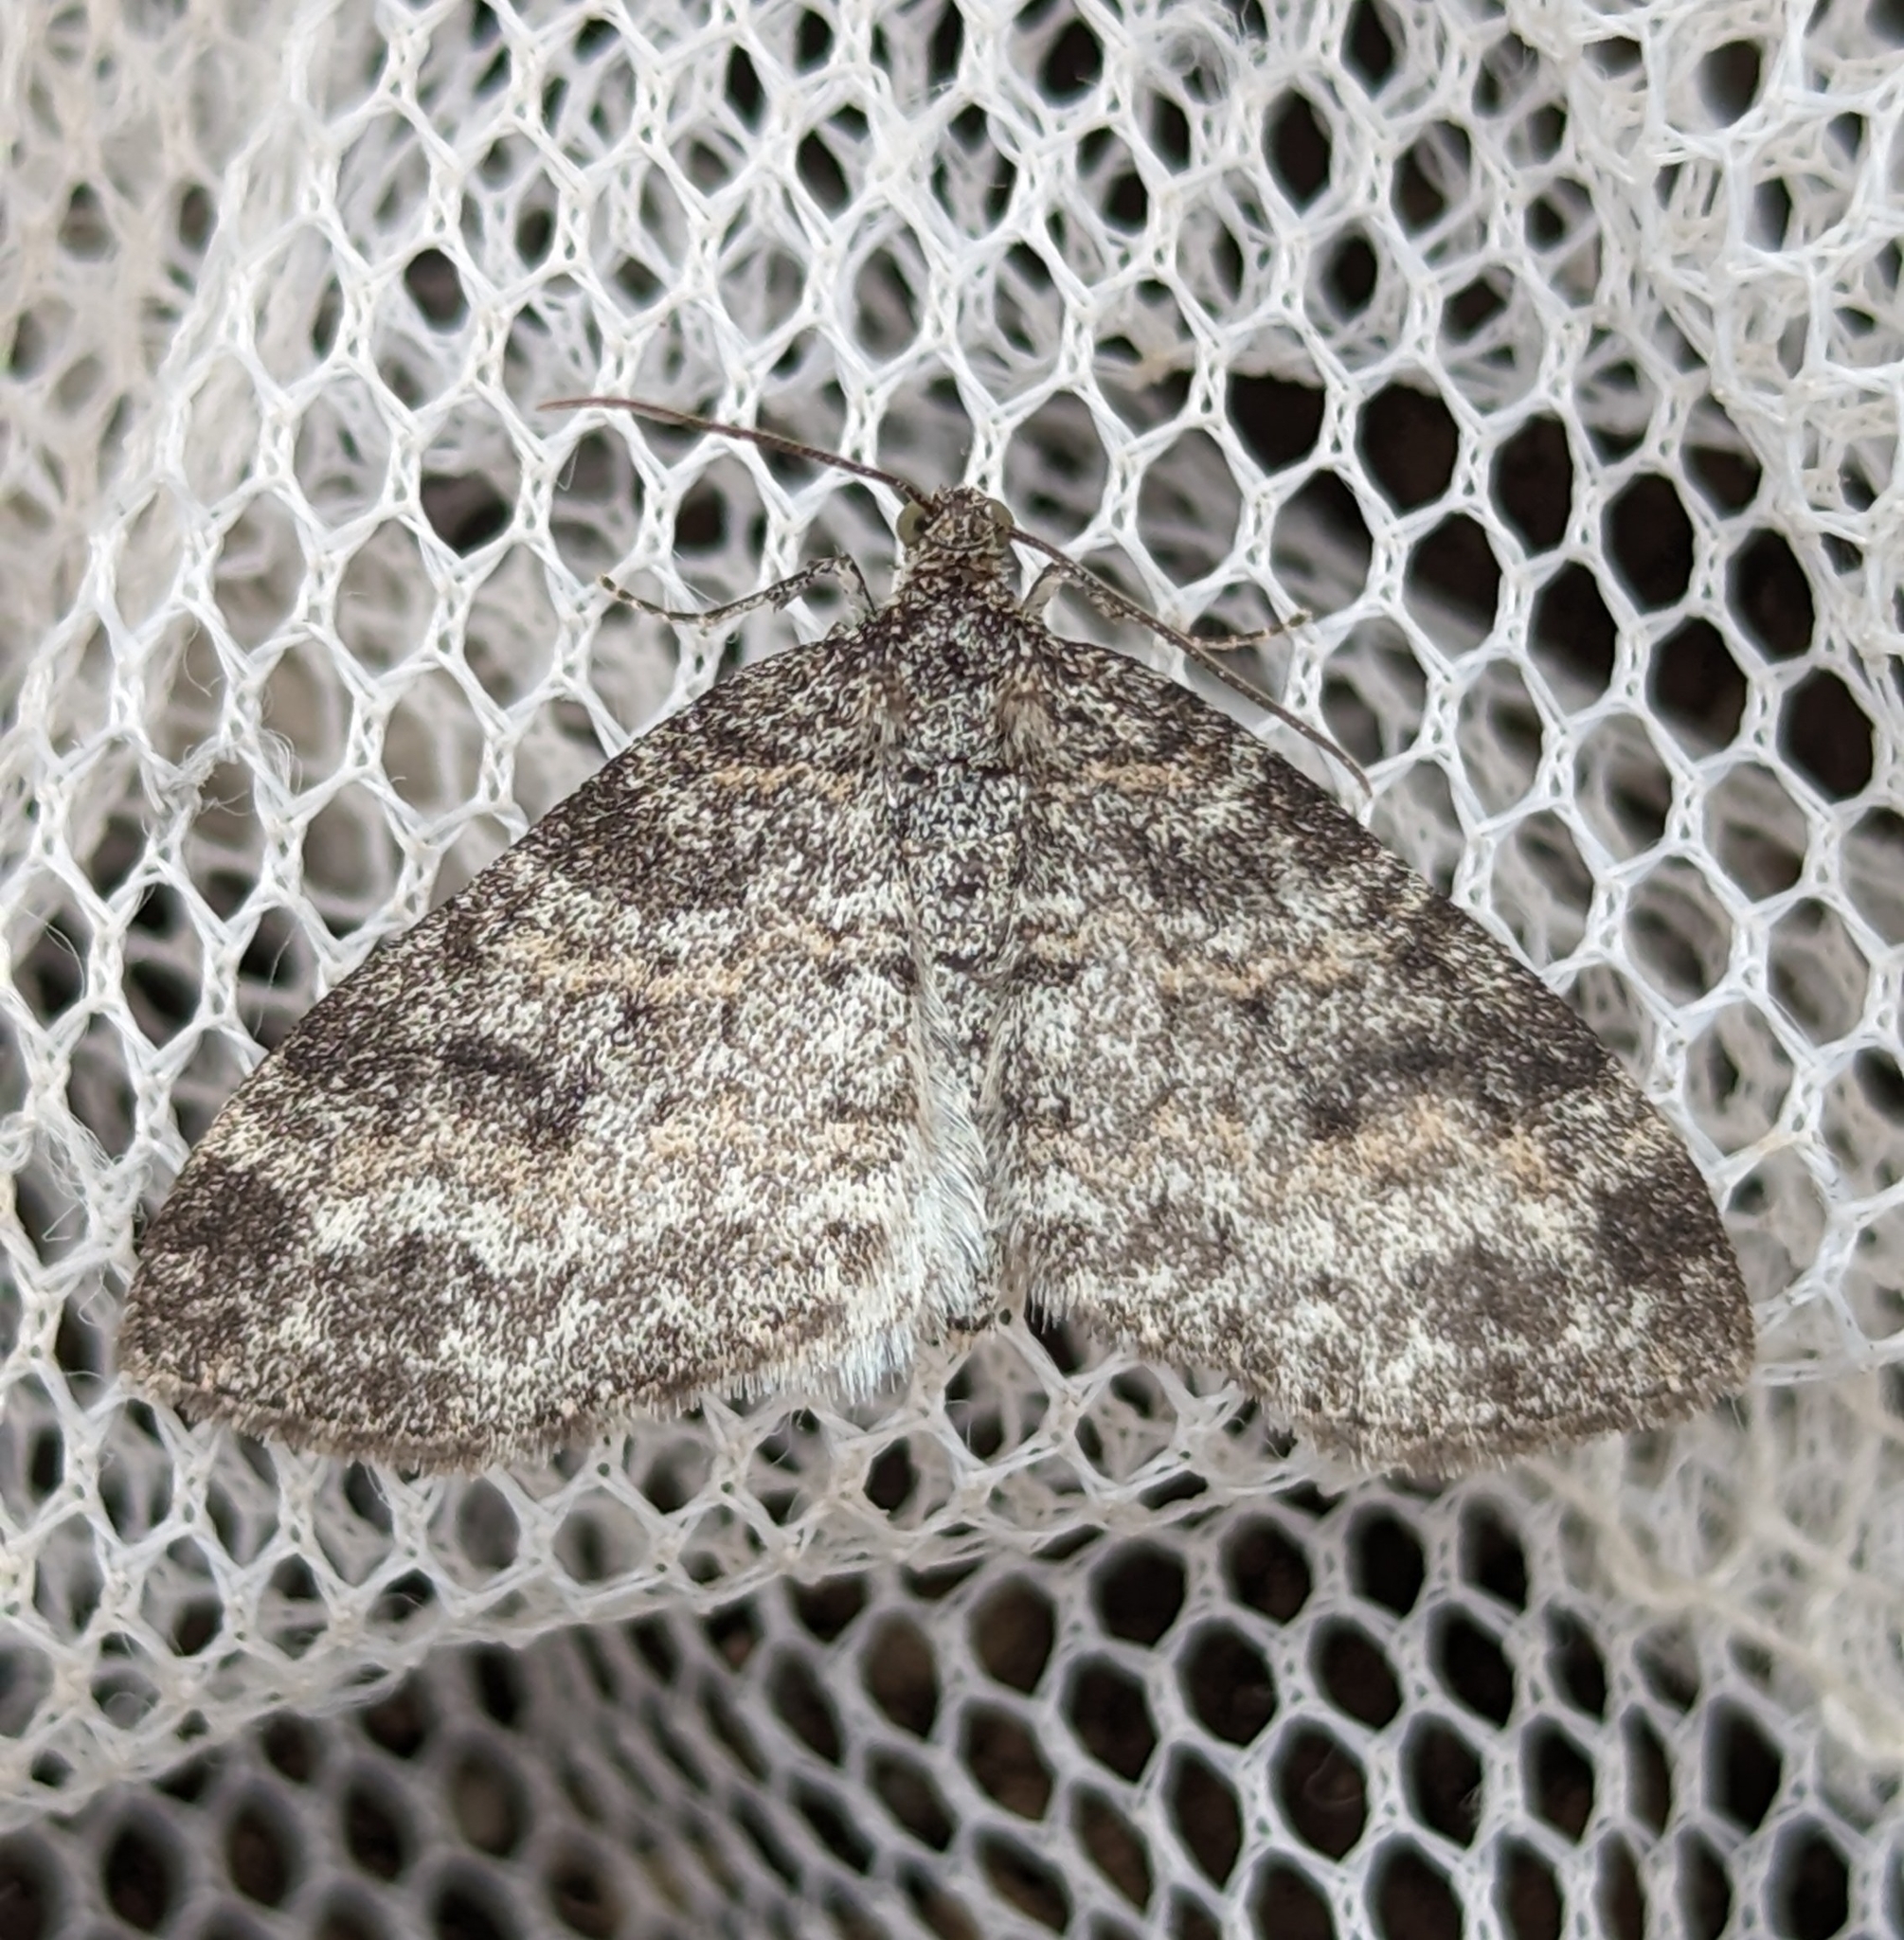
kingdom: Animalia
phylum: Arthropoda
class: Insecta
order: Lepidoptera
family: Geometridae
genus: Lobophora
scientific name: Lobophora nivigerata
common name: Powdered bigwing
